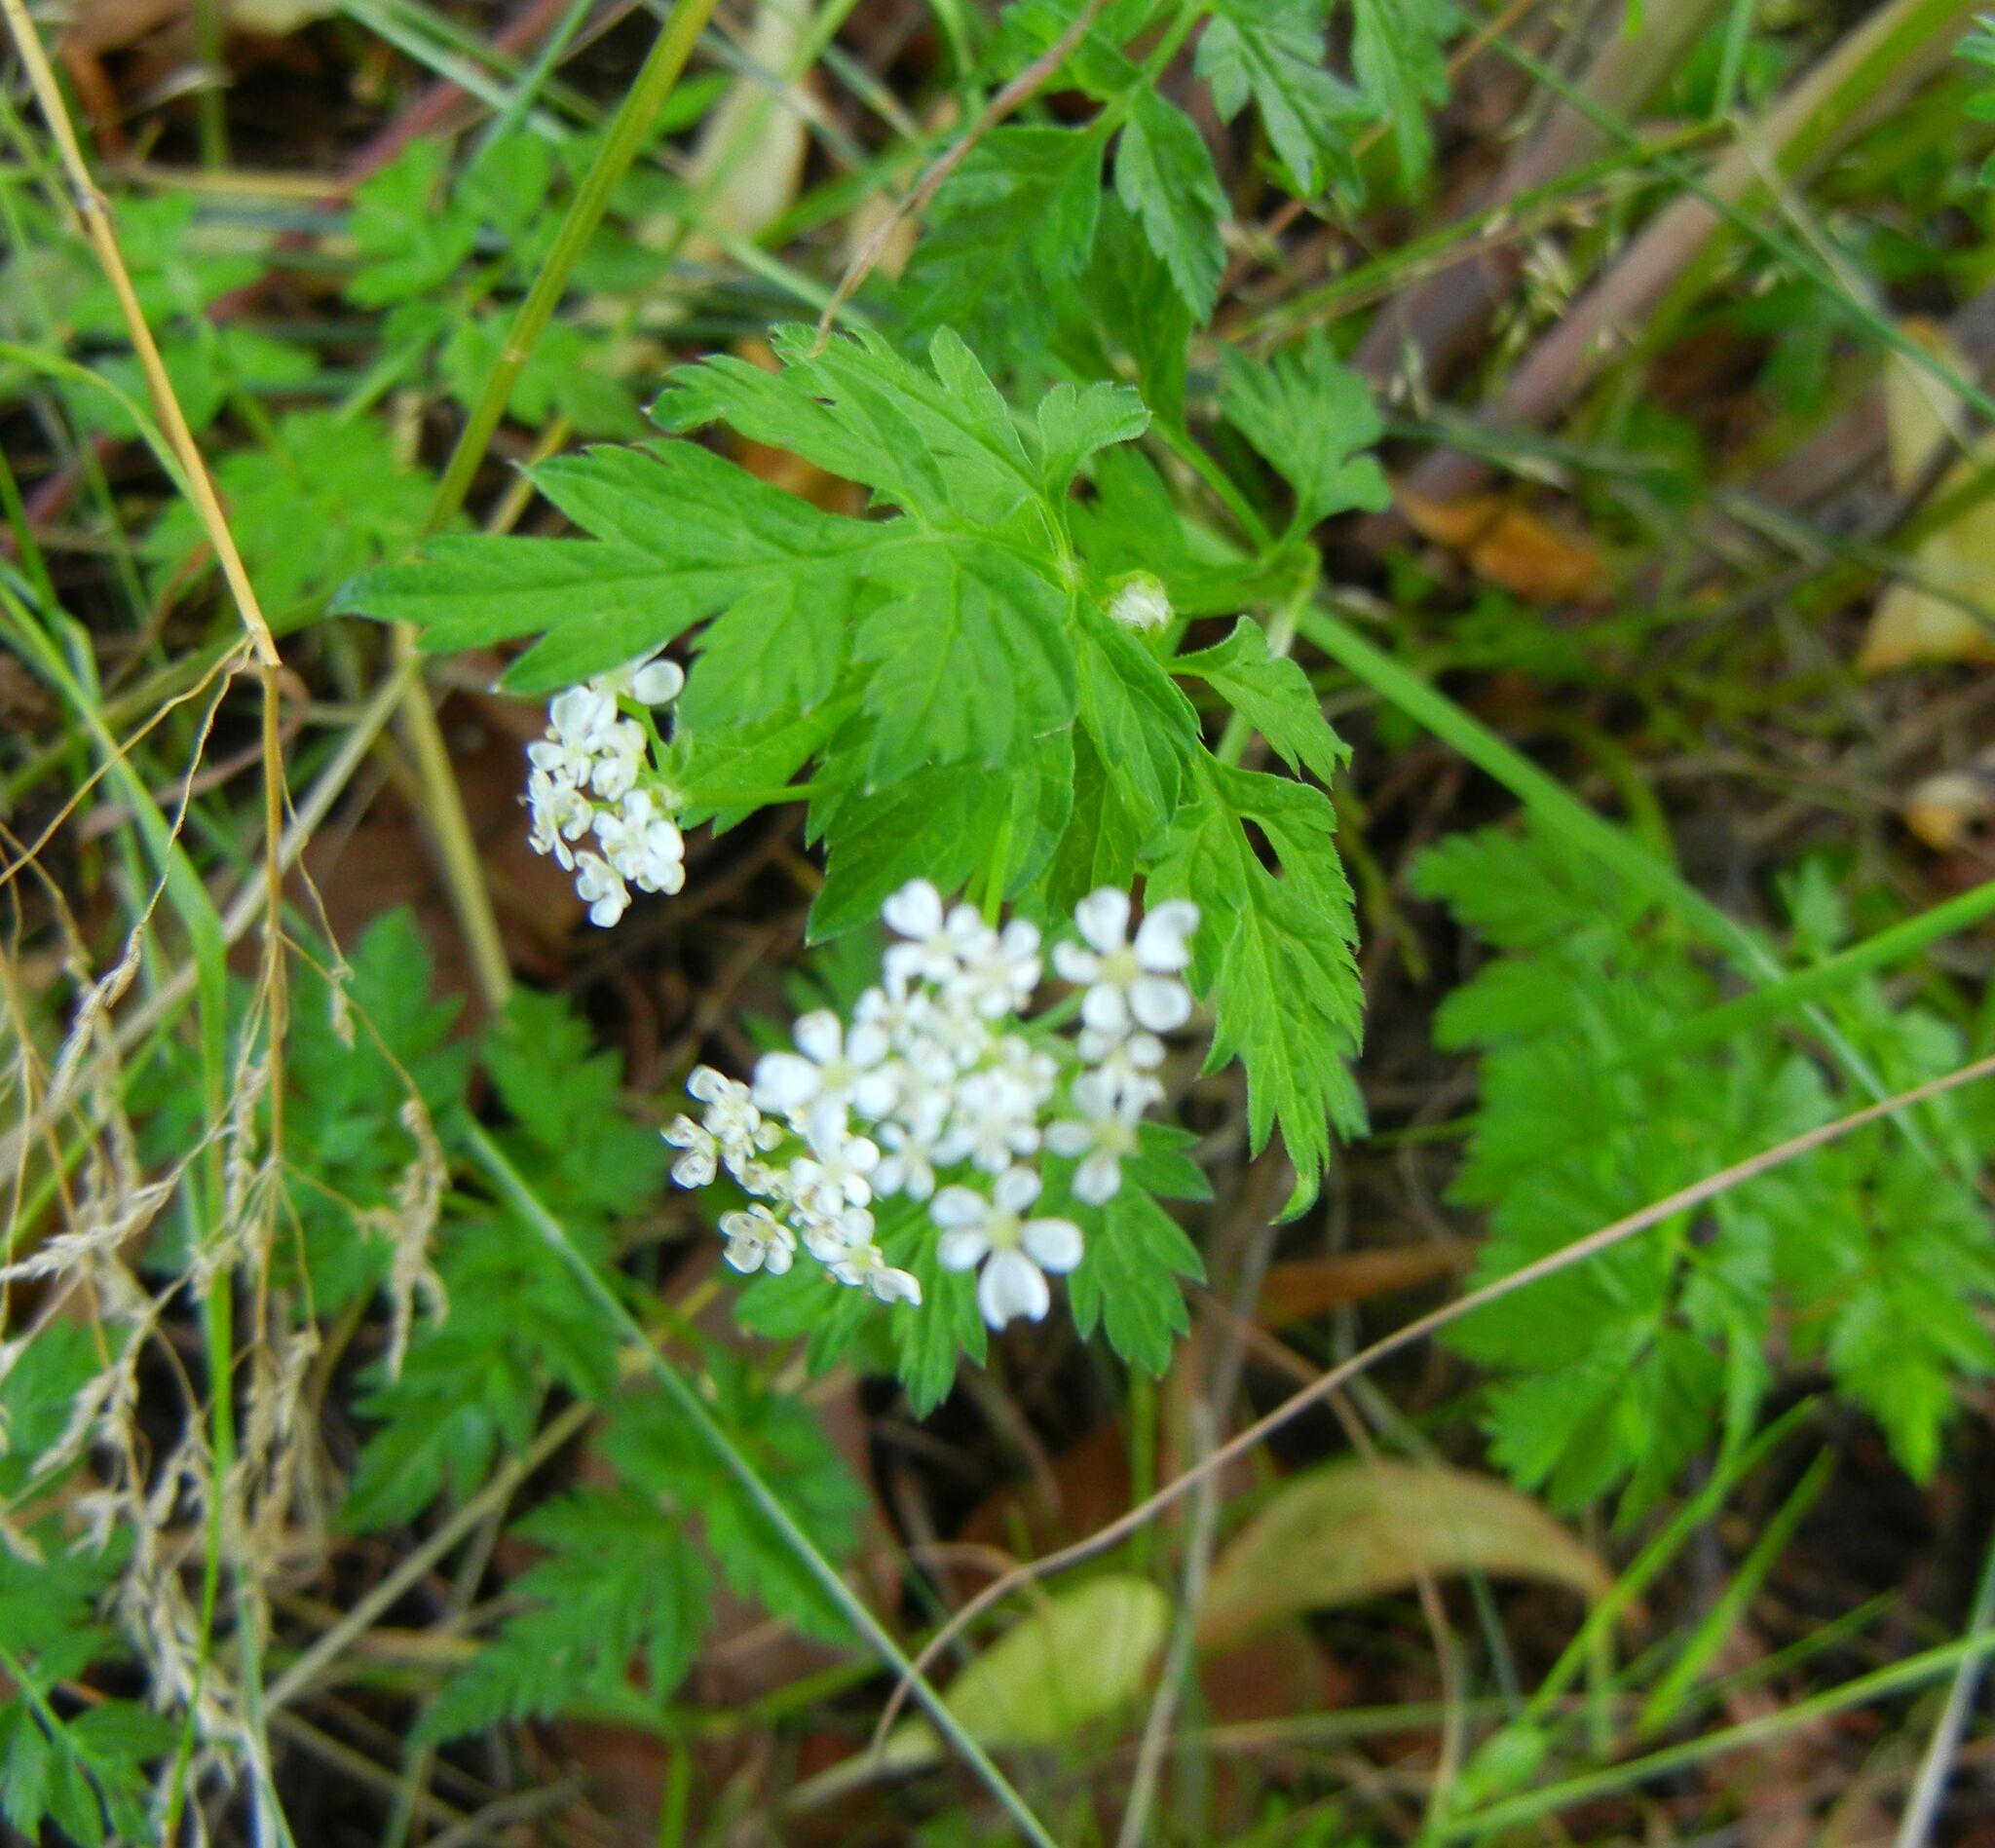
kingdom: Plantae
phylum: Tracheophyta
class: Magnoliopsida
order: Apiales
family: Apiaceae
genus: Anthriscus
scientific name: Anthriscus sylvestris
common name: Cow parsley
